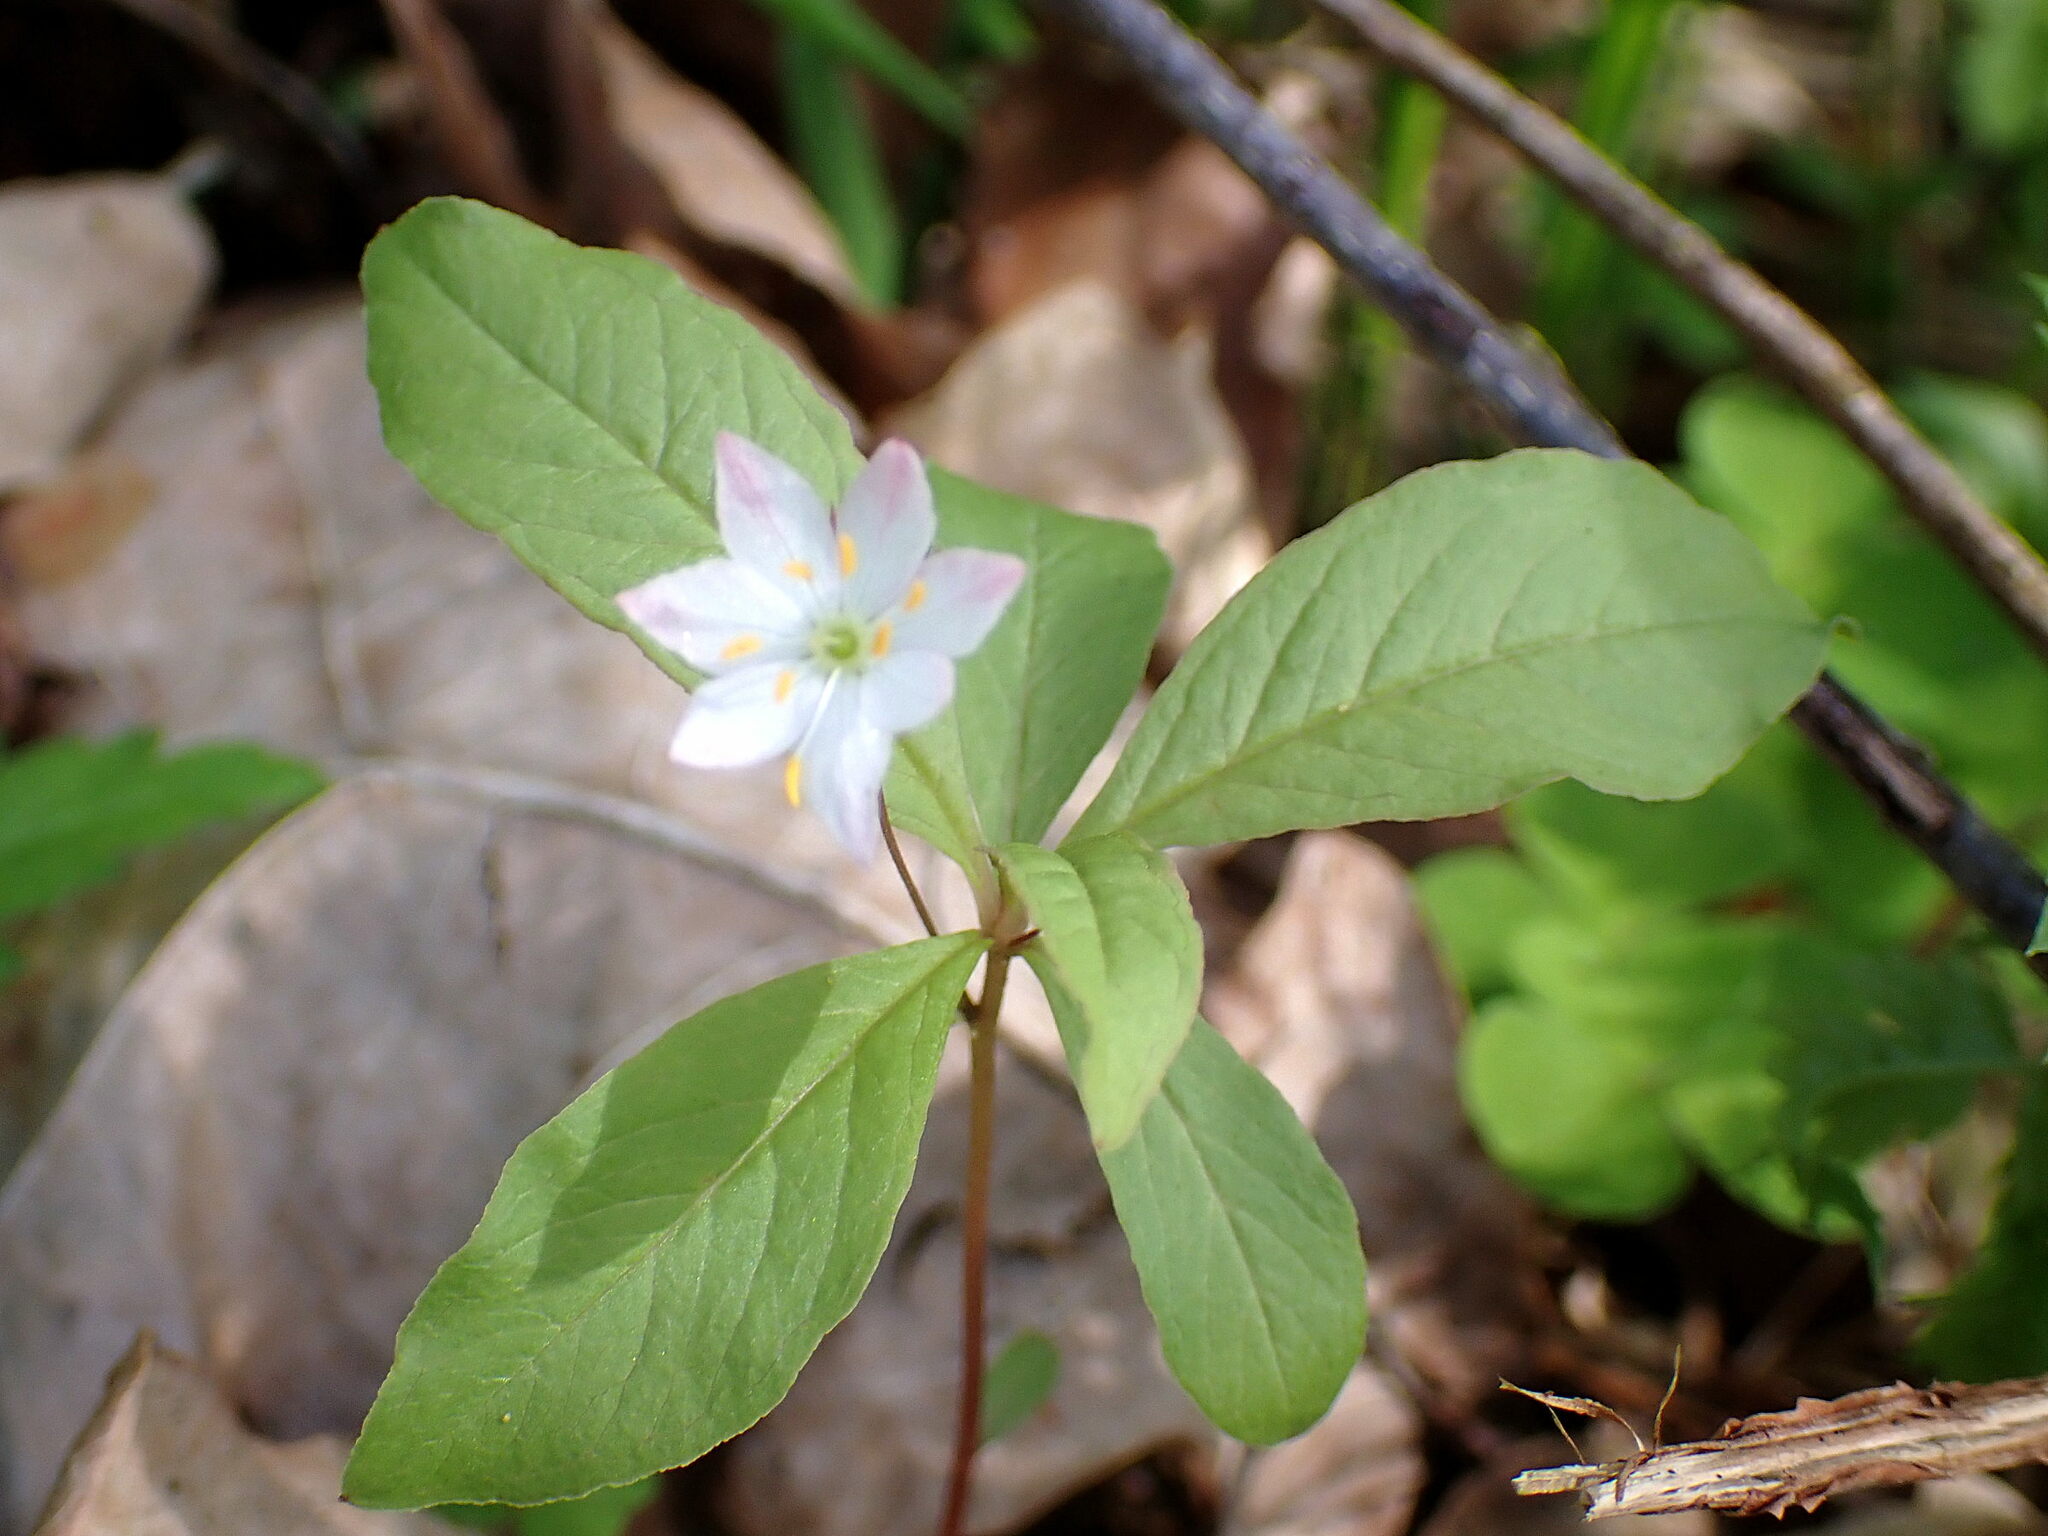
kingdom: Plantae
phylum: Tracheophyta
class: Magnoliopsida
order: Ericales
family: Primulaceae
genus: Lysimachia
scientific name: Lysimachia europaea
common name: Arctic starflower
